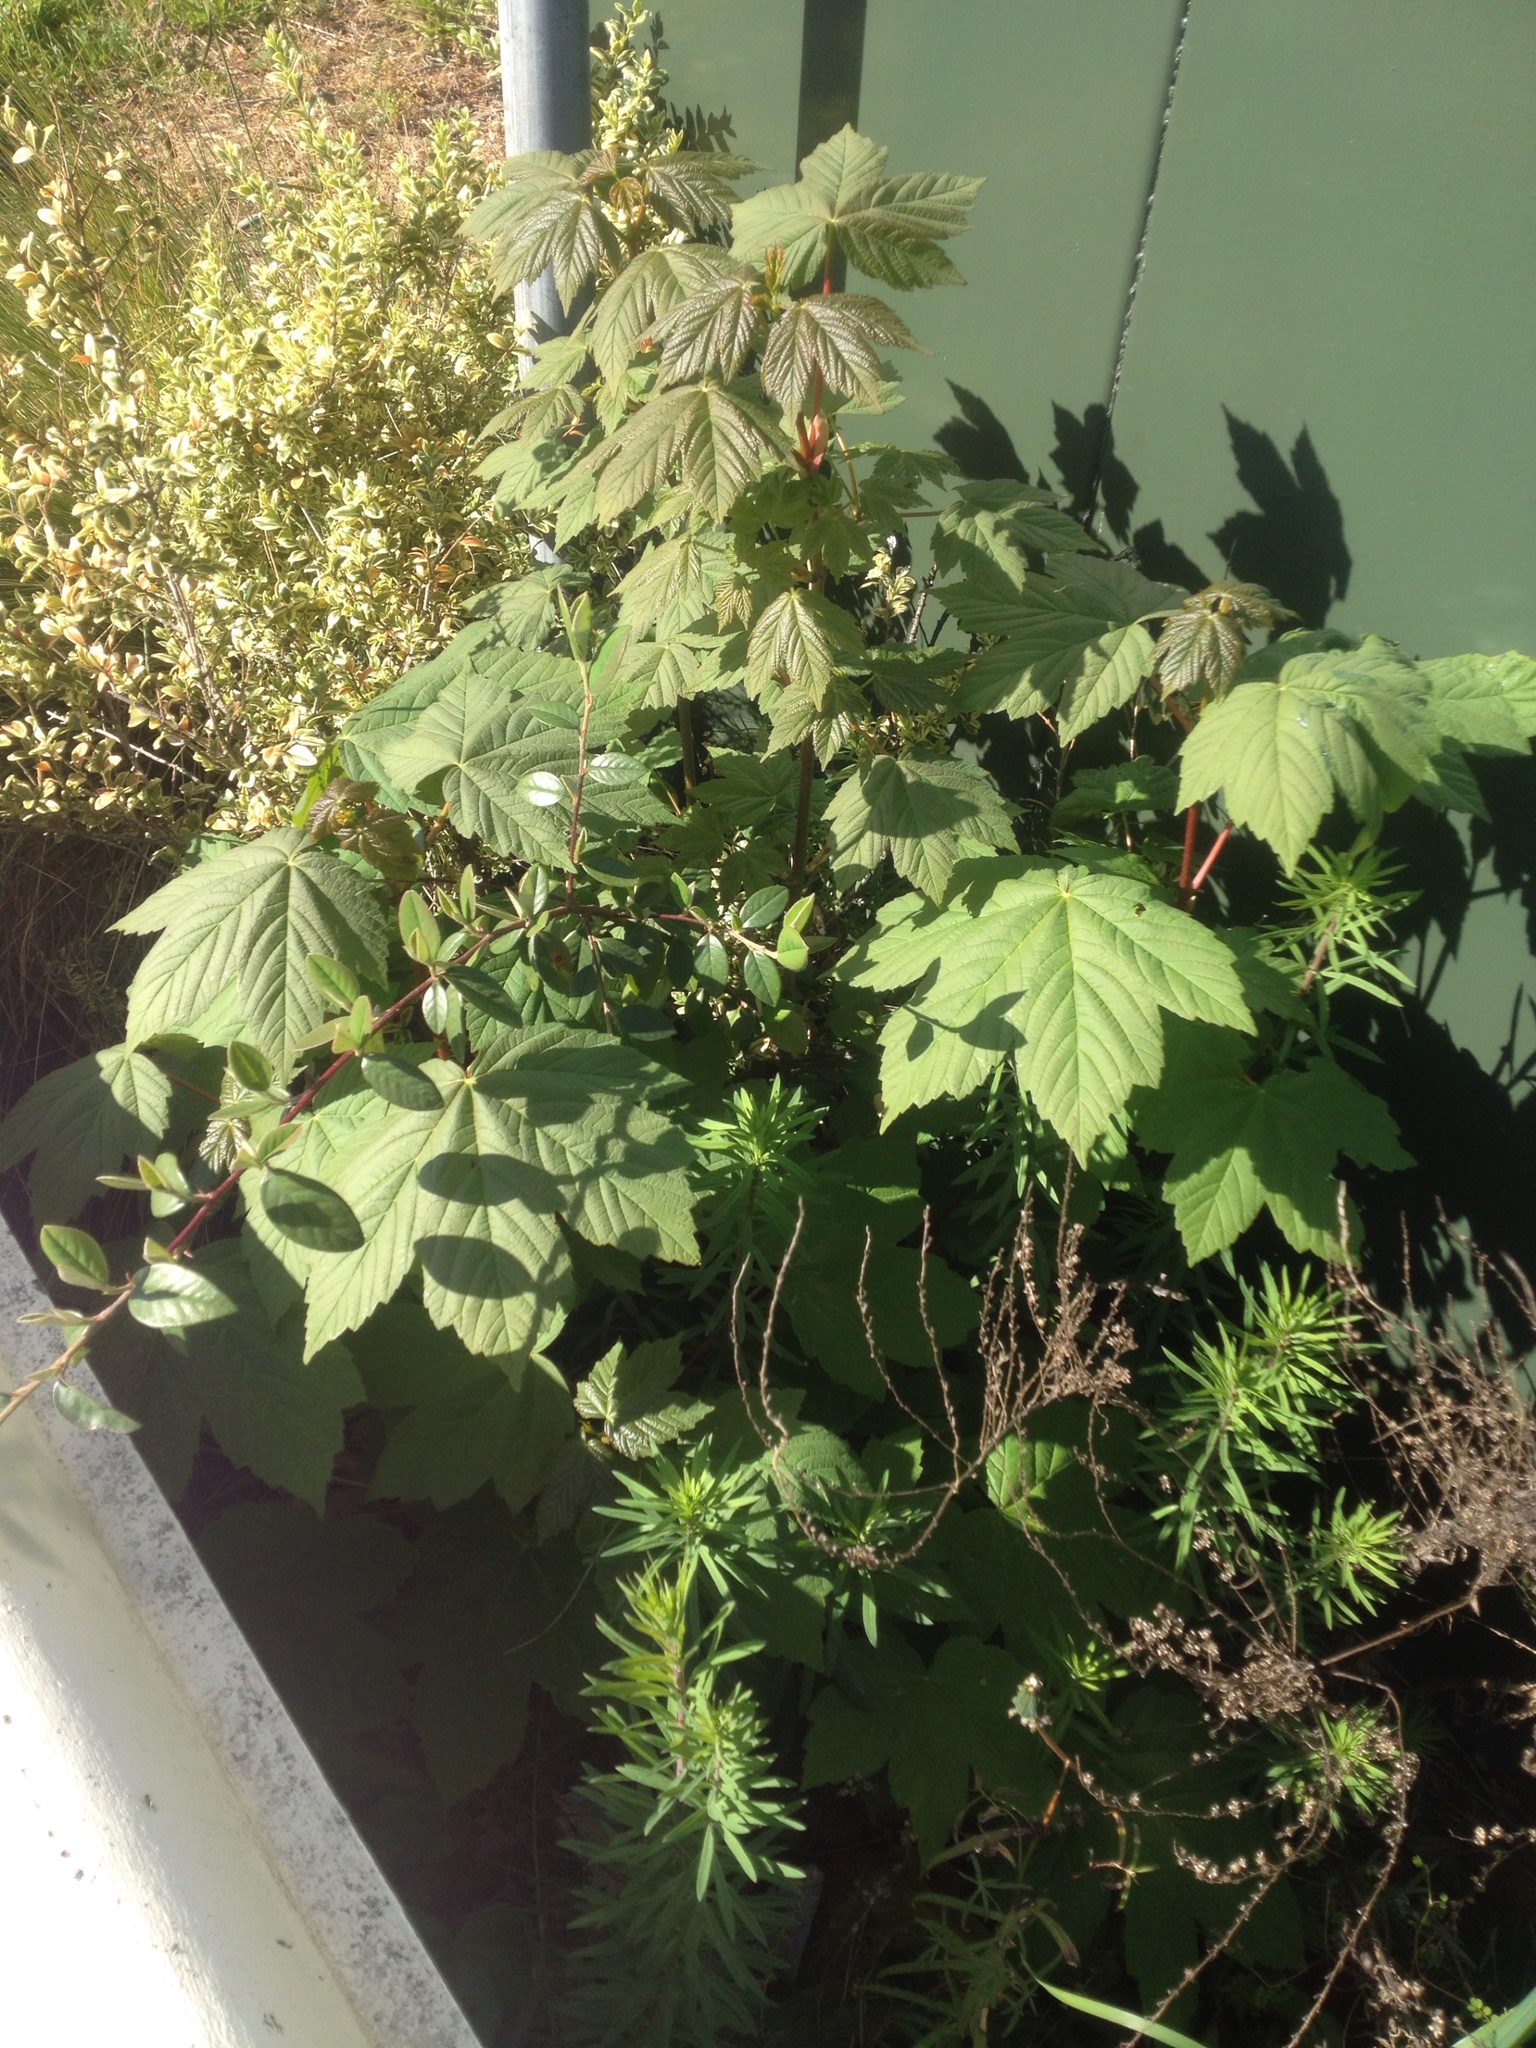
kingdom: Plantae
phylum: Tracheophyta
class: Magnoliopsida
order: Rosales
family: Rosaceae
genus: Cotoneaster
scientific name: Cotoneaster simonsii
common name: Himalayan cotoneaster
